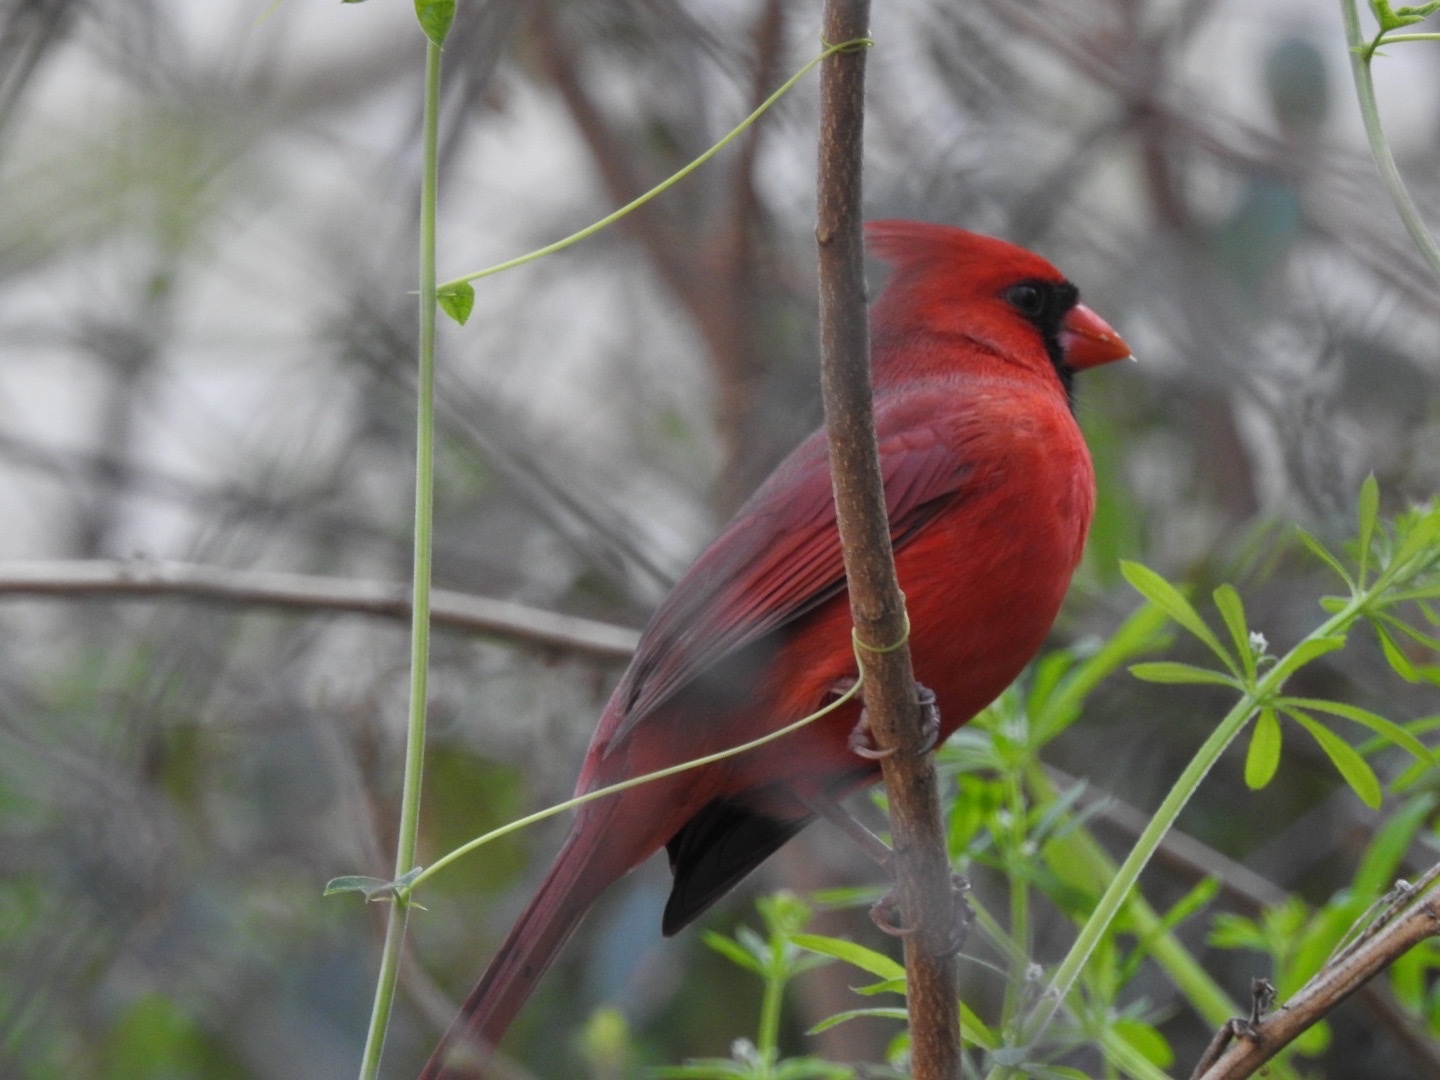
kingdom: Animalia
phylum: Chordata
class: Aves
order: Passeriformes
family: Cardinalidae
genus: Cardinalis
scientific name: Cardinalis cardinalis
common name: Northern cardinal
